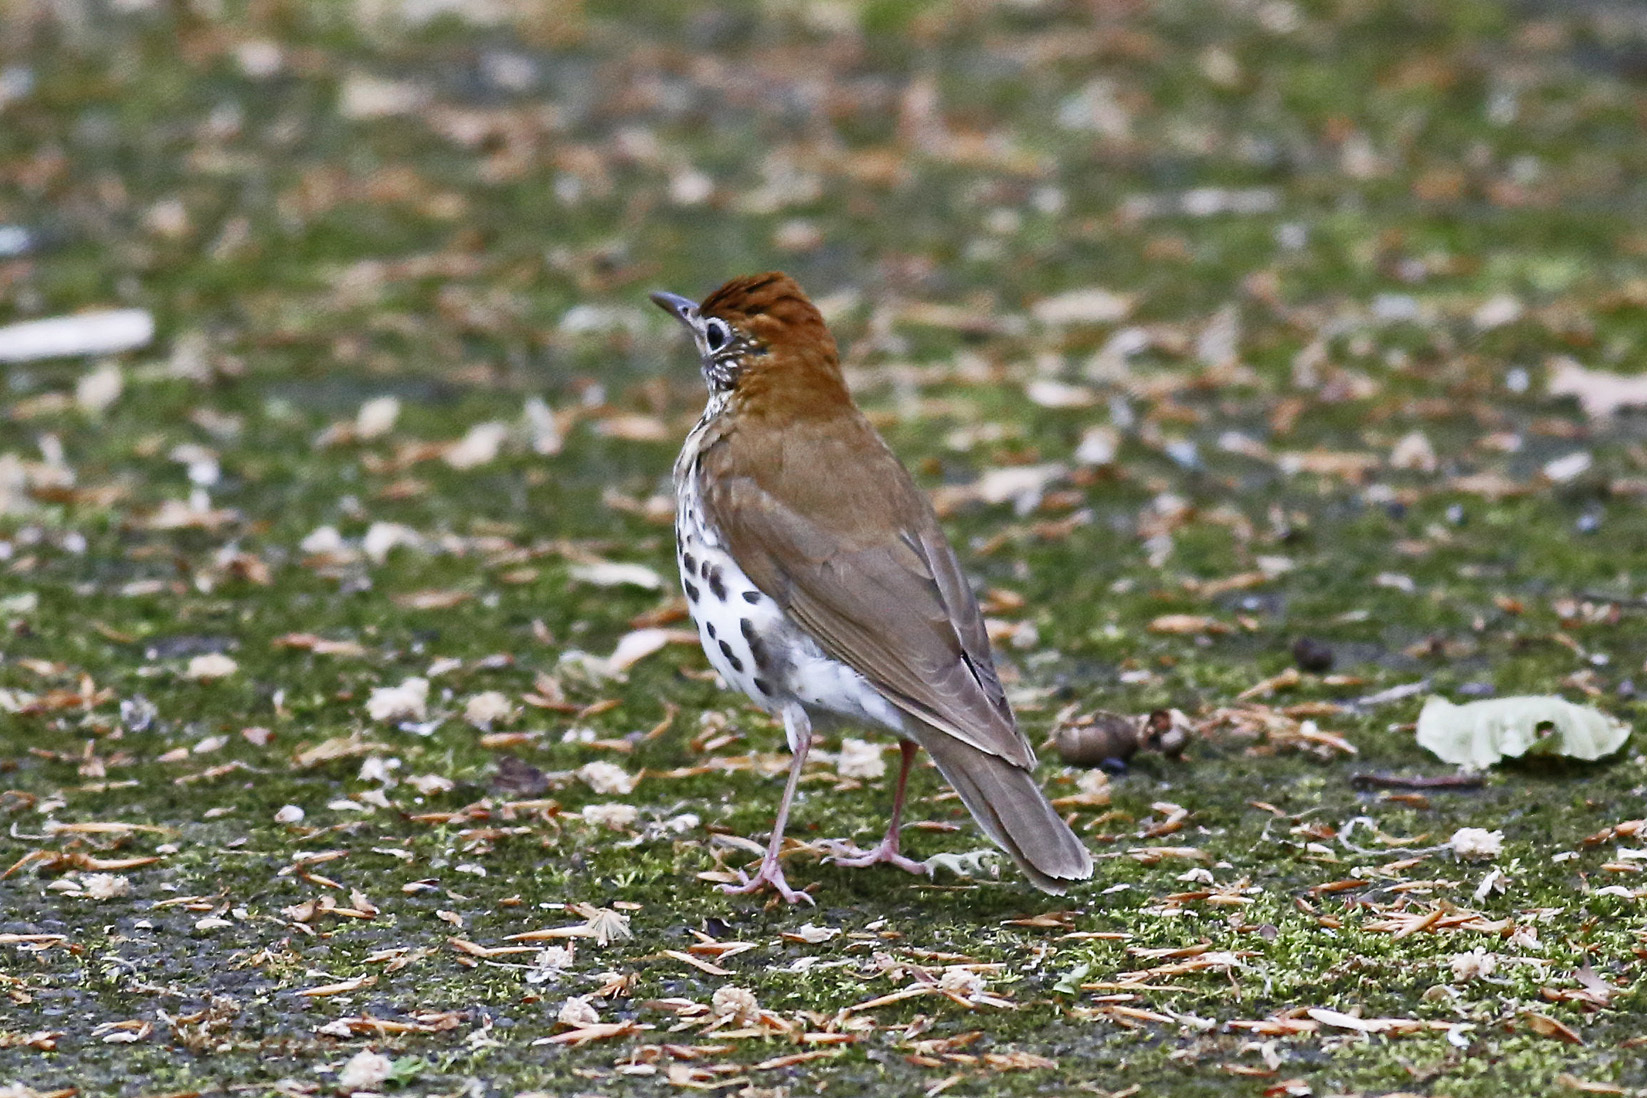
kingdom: Animalia
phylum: Chordata
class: Aves
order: Passeriformes
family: Turdidae
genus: Hylocichla
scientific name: Hylocichla mustelina
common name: Wood thrush
